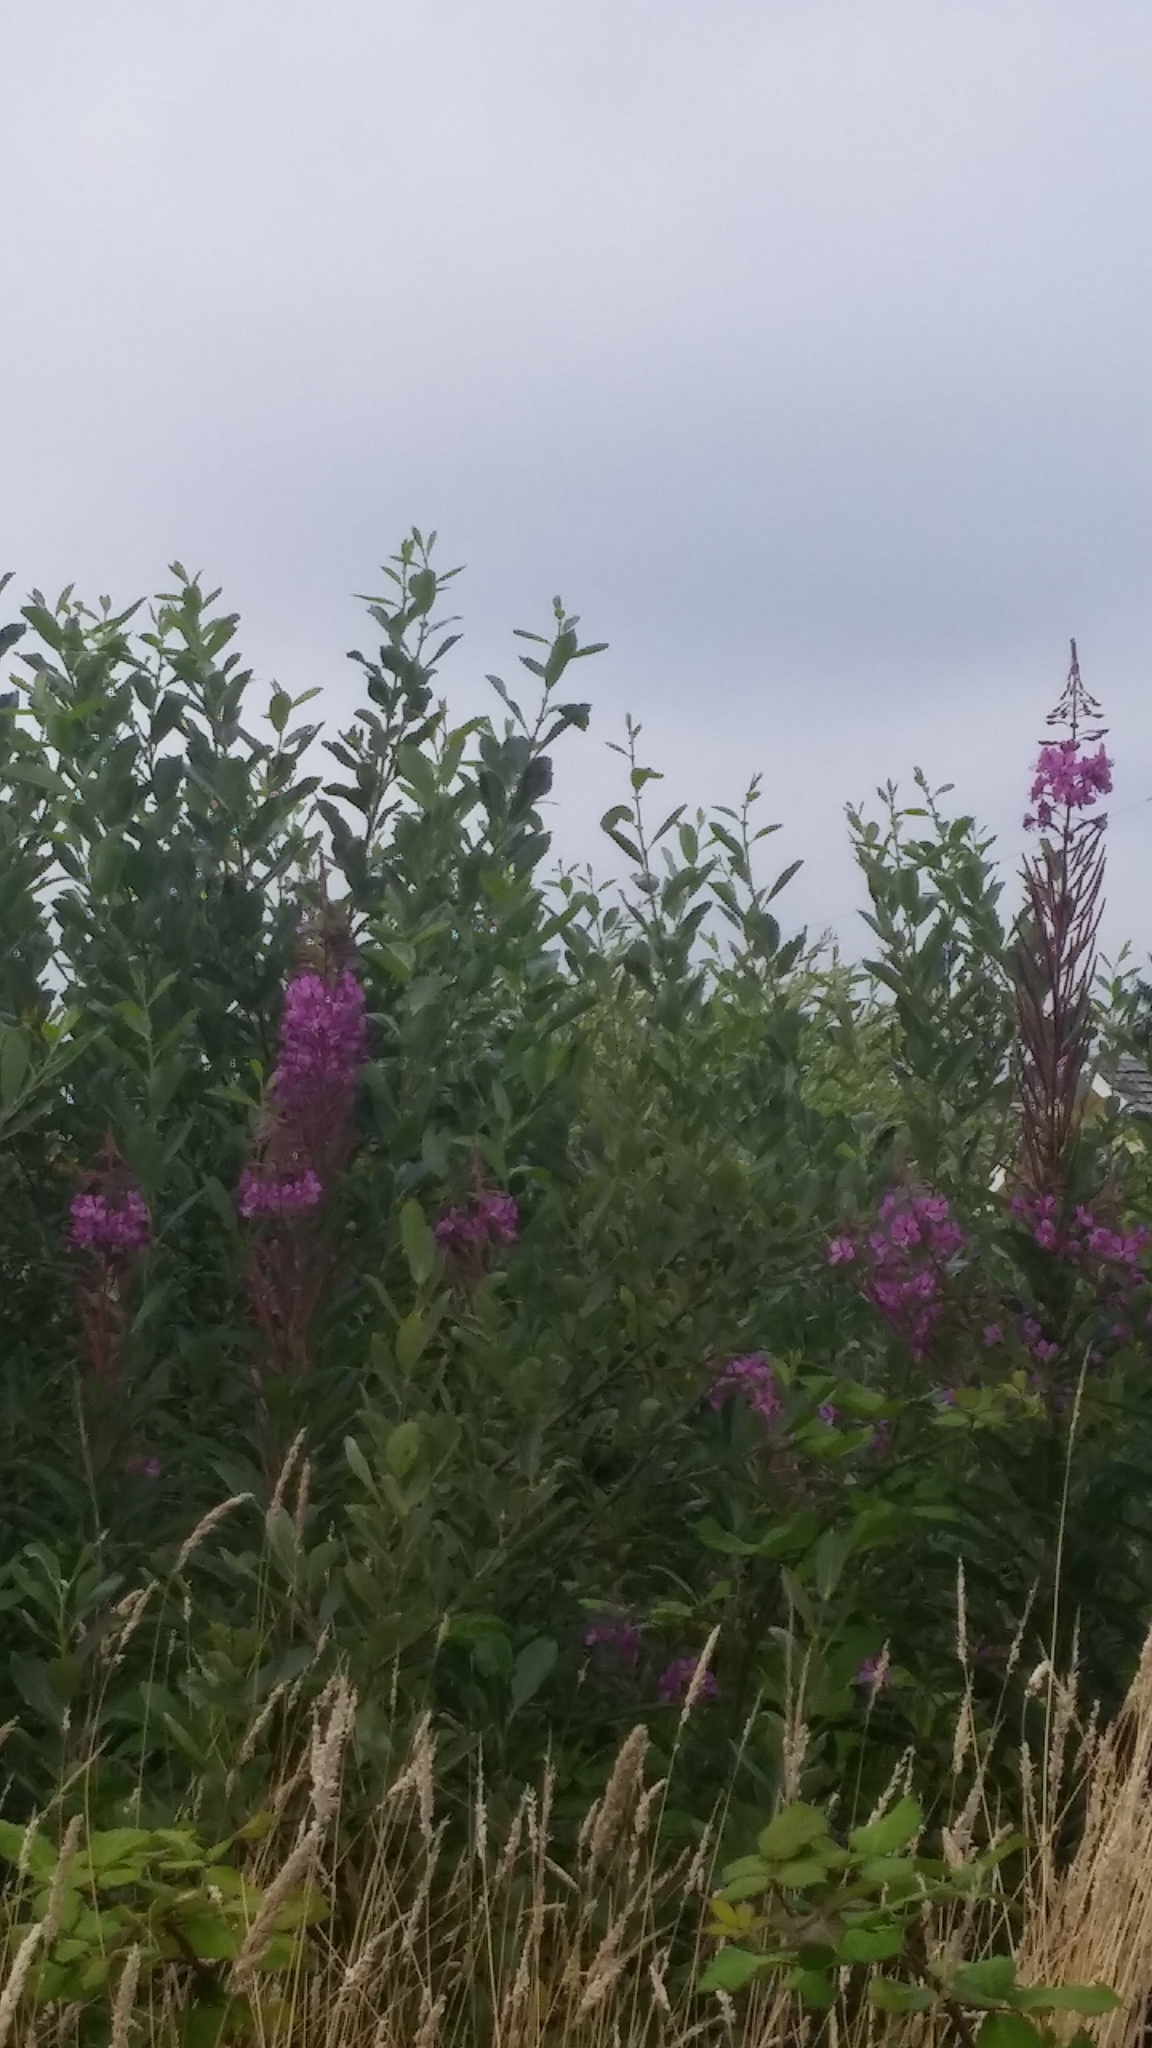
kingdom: Plantae
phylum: Tracheophyta
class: Magnoliopsida
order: Myrtales
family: Onagraceae
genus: Chamaenerion
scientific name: Chamaenerion angustifolium
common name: Fireweed
